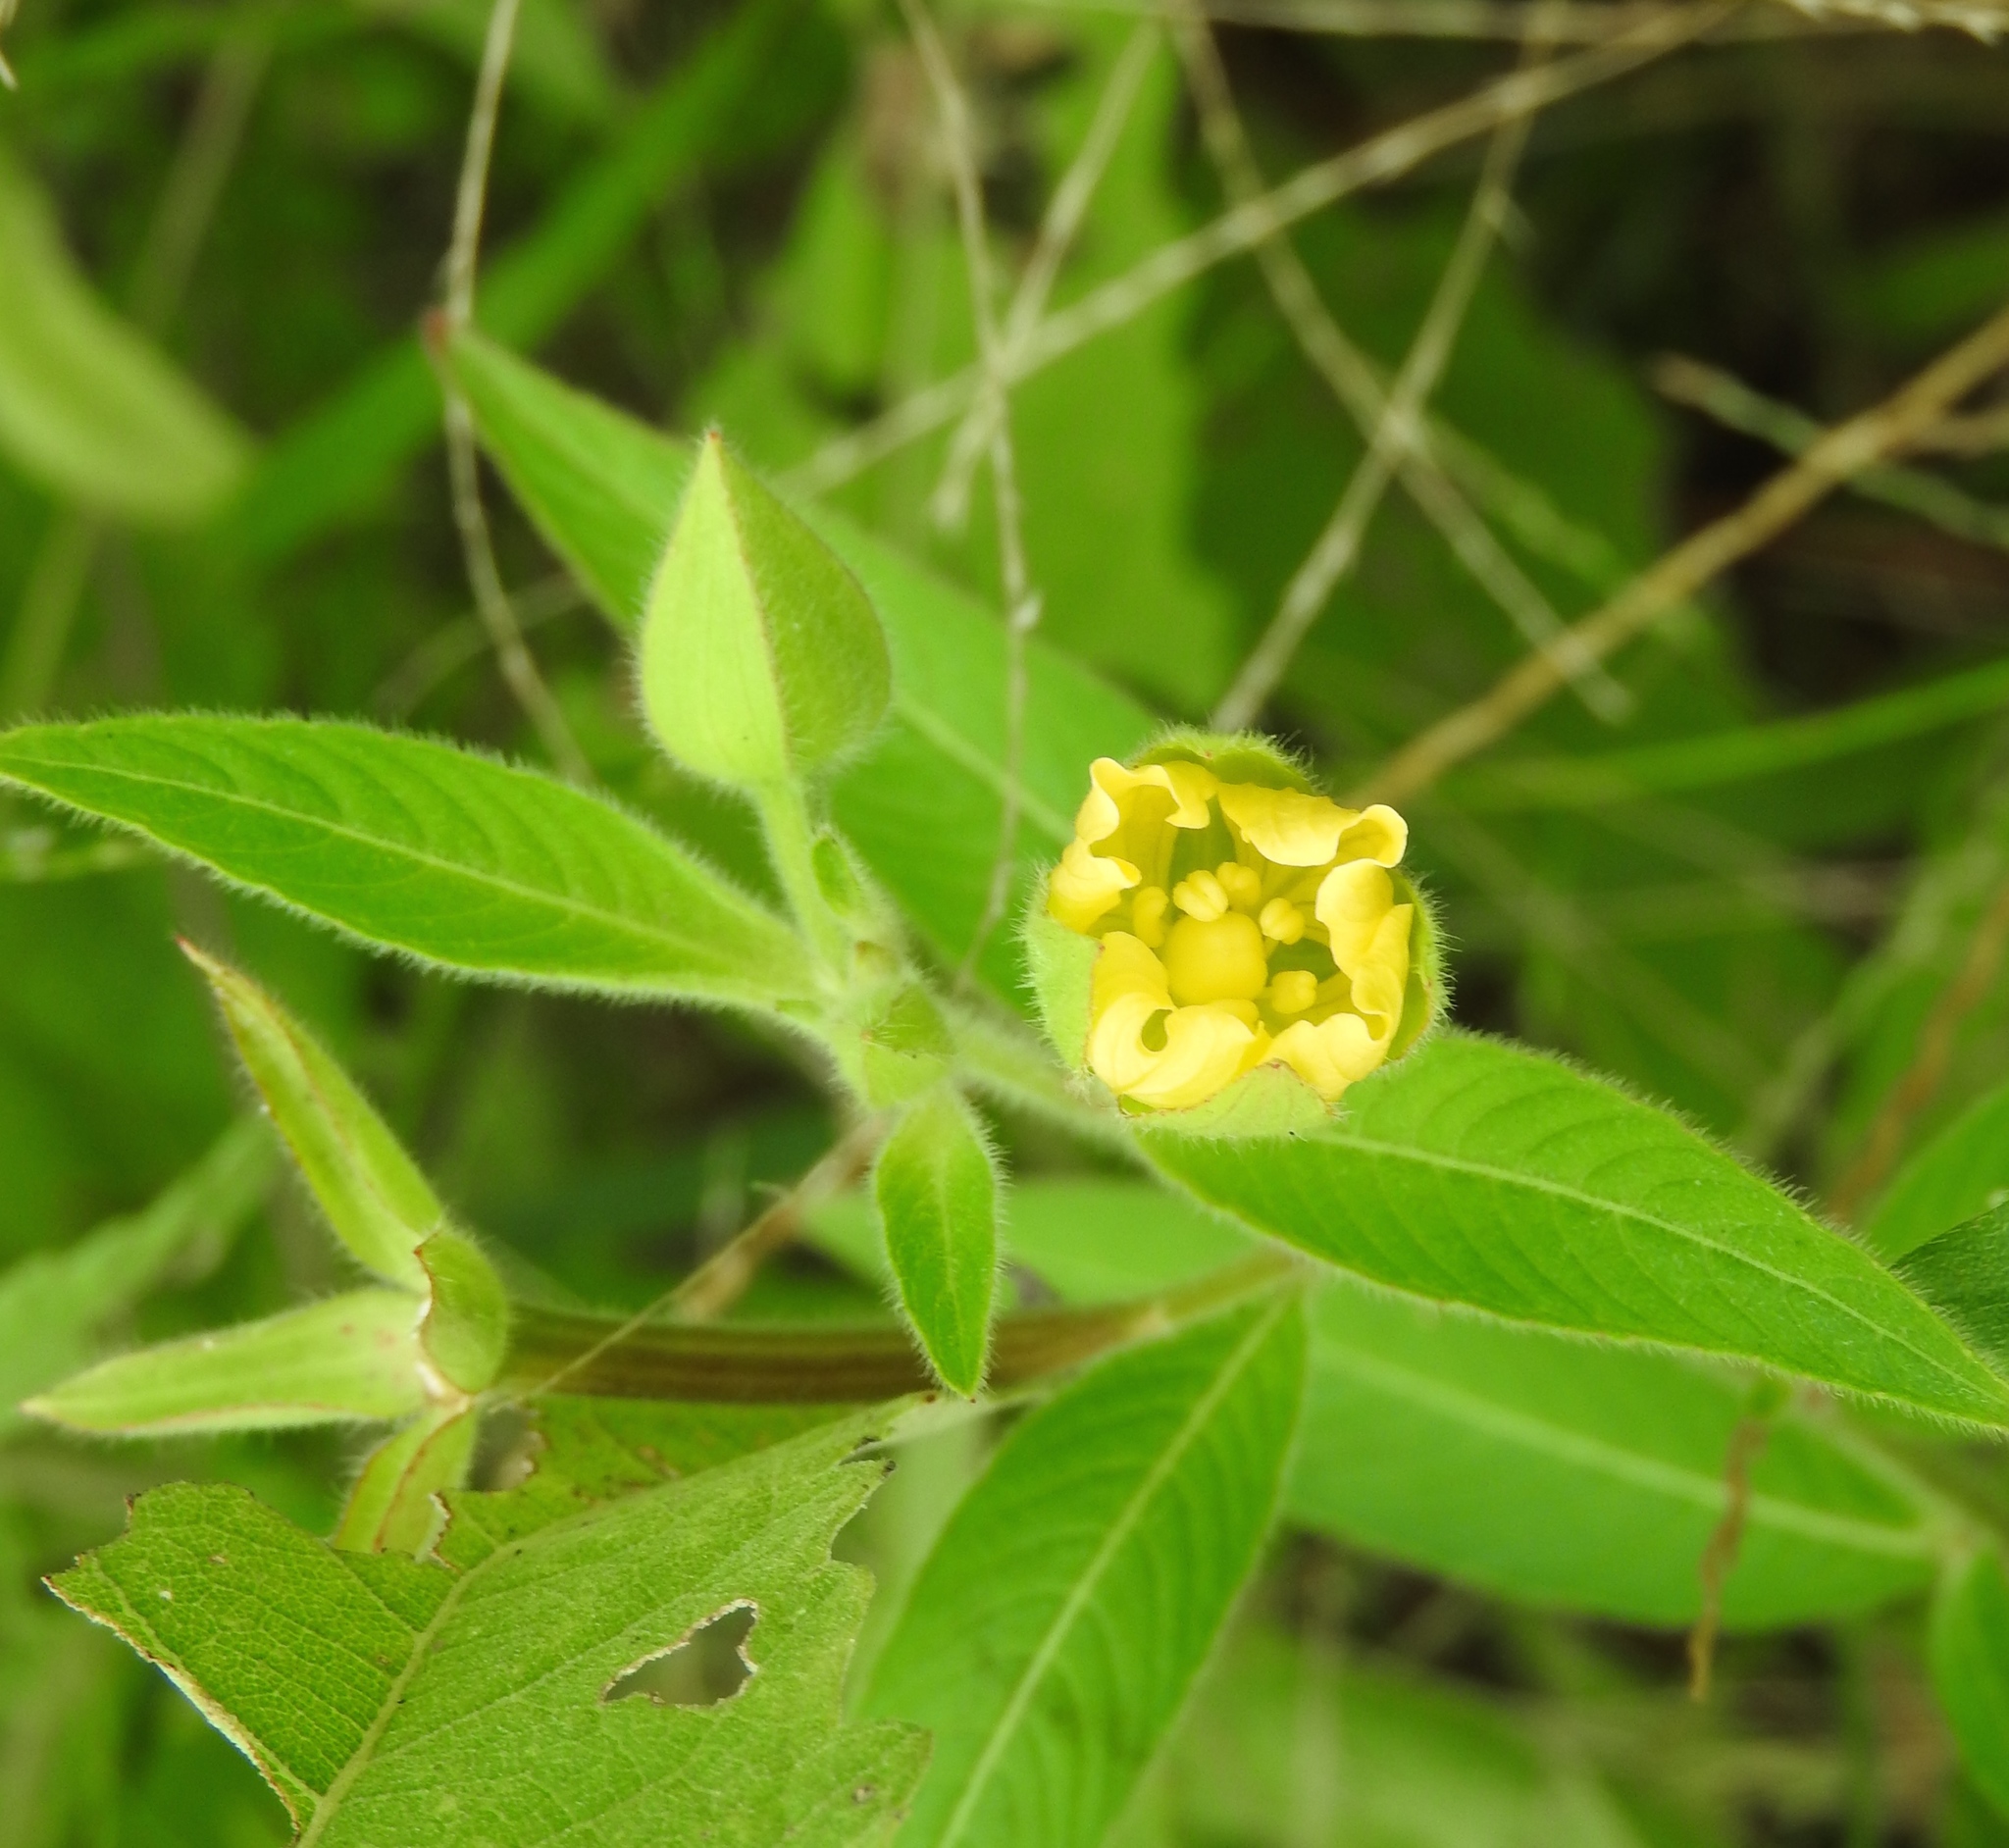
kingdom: Plantae
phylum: Tracheophyta
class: Magnoliopsida
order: Myrtales
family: Onagraceae
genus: Ludwigia
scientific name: Ludwigia
